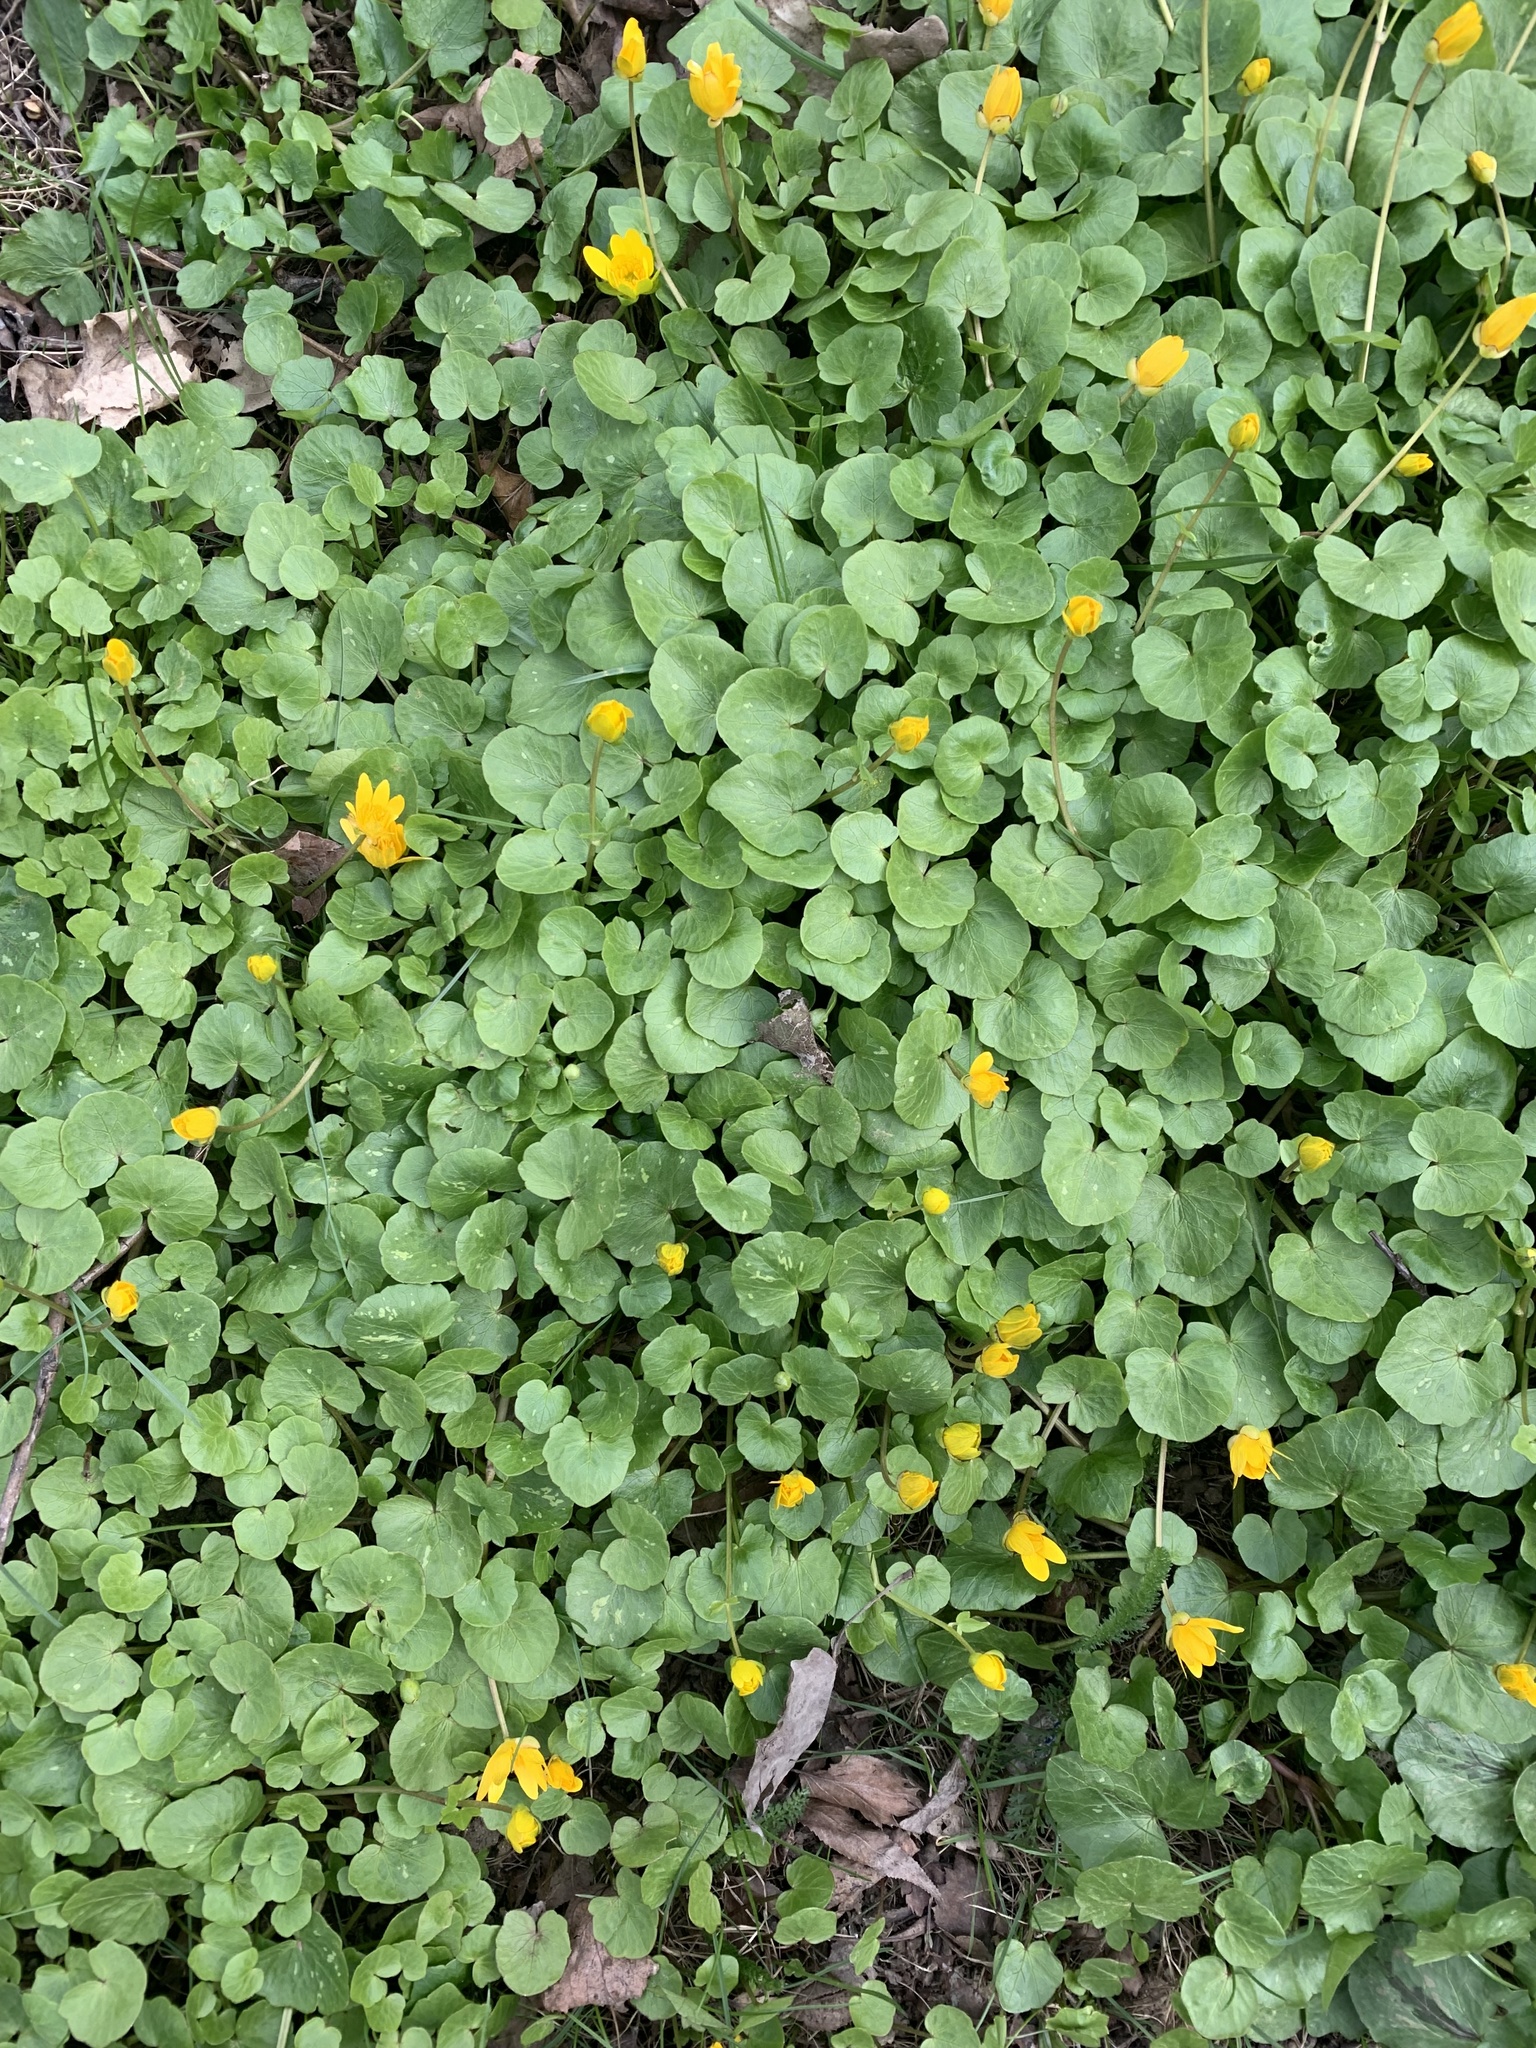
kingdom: Plantae
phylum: Tracheophyta
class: Magnoliopsida
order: Ranunculales
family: Ranunculaceae
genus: Ficaria
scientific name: Ficaria verna
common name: Lesser celandine
